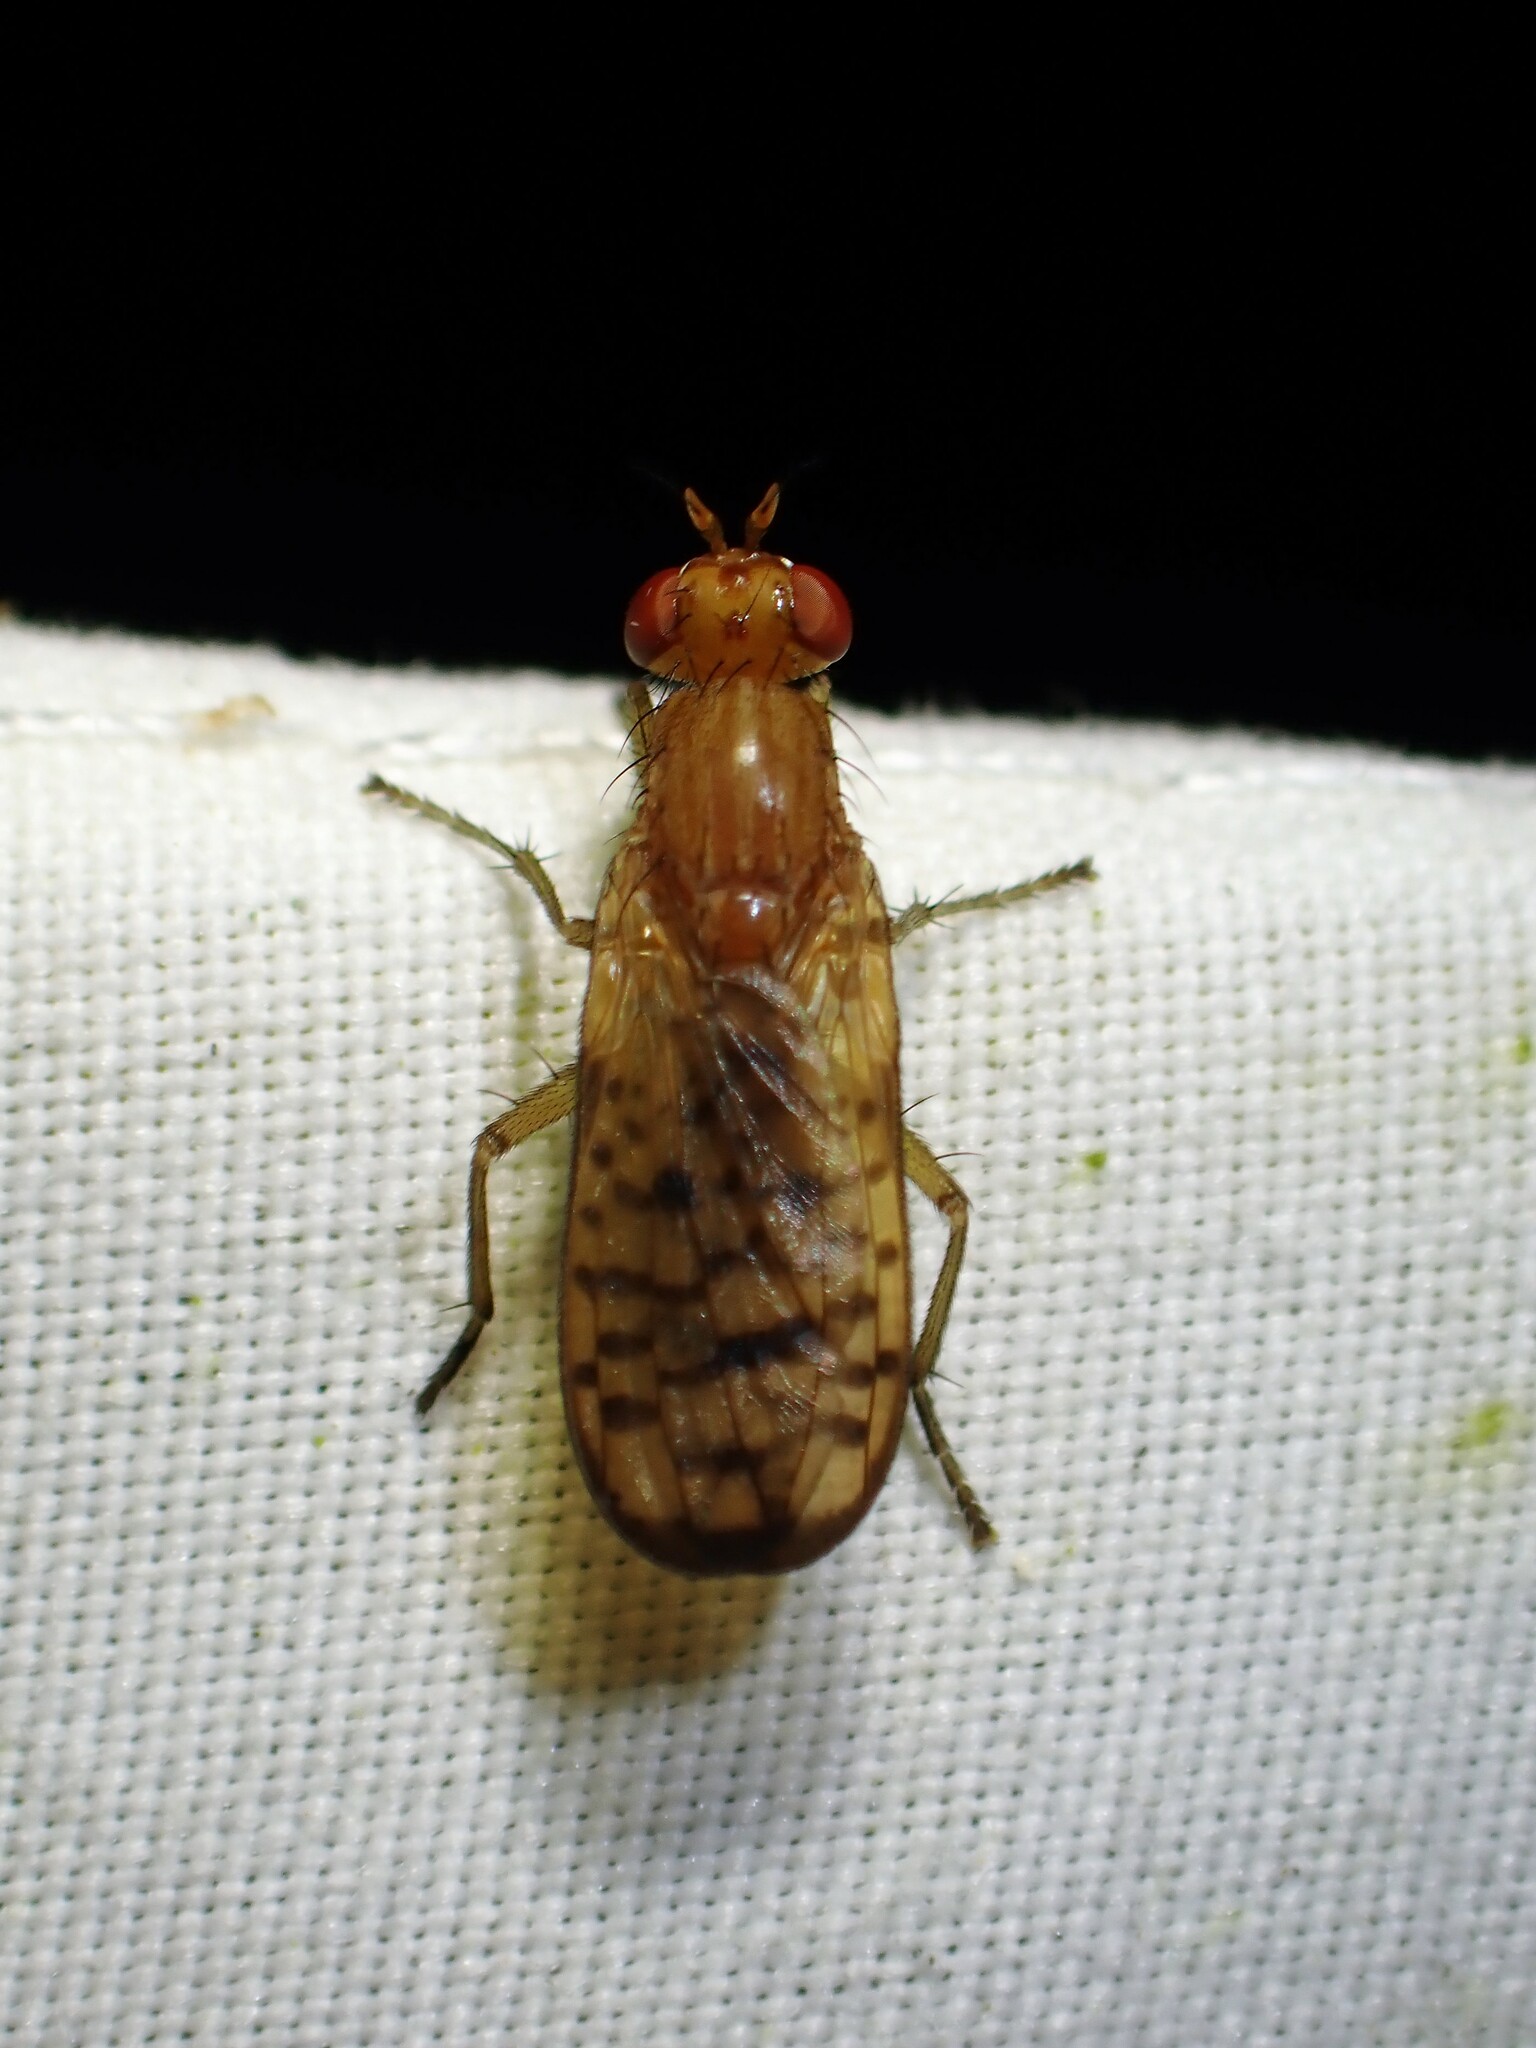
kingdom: Animalia
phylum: Arthropoda
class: Insecta
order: Diptera
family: Sciomyzidae
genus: Tetanocera
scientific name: Tetanocera valida
